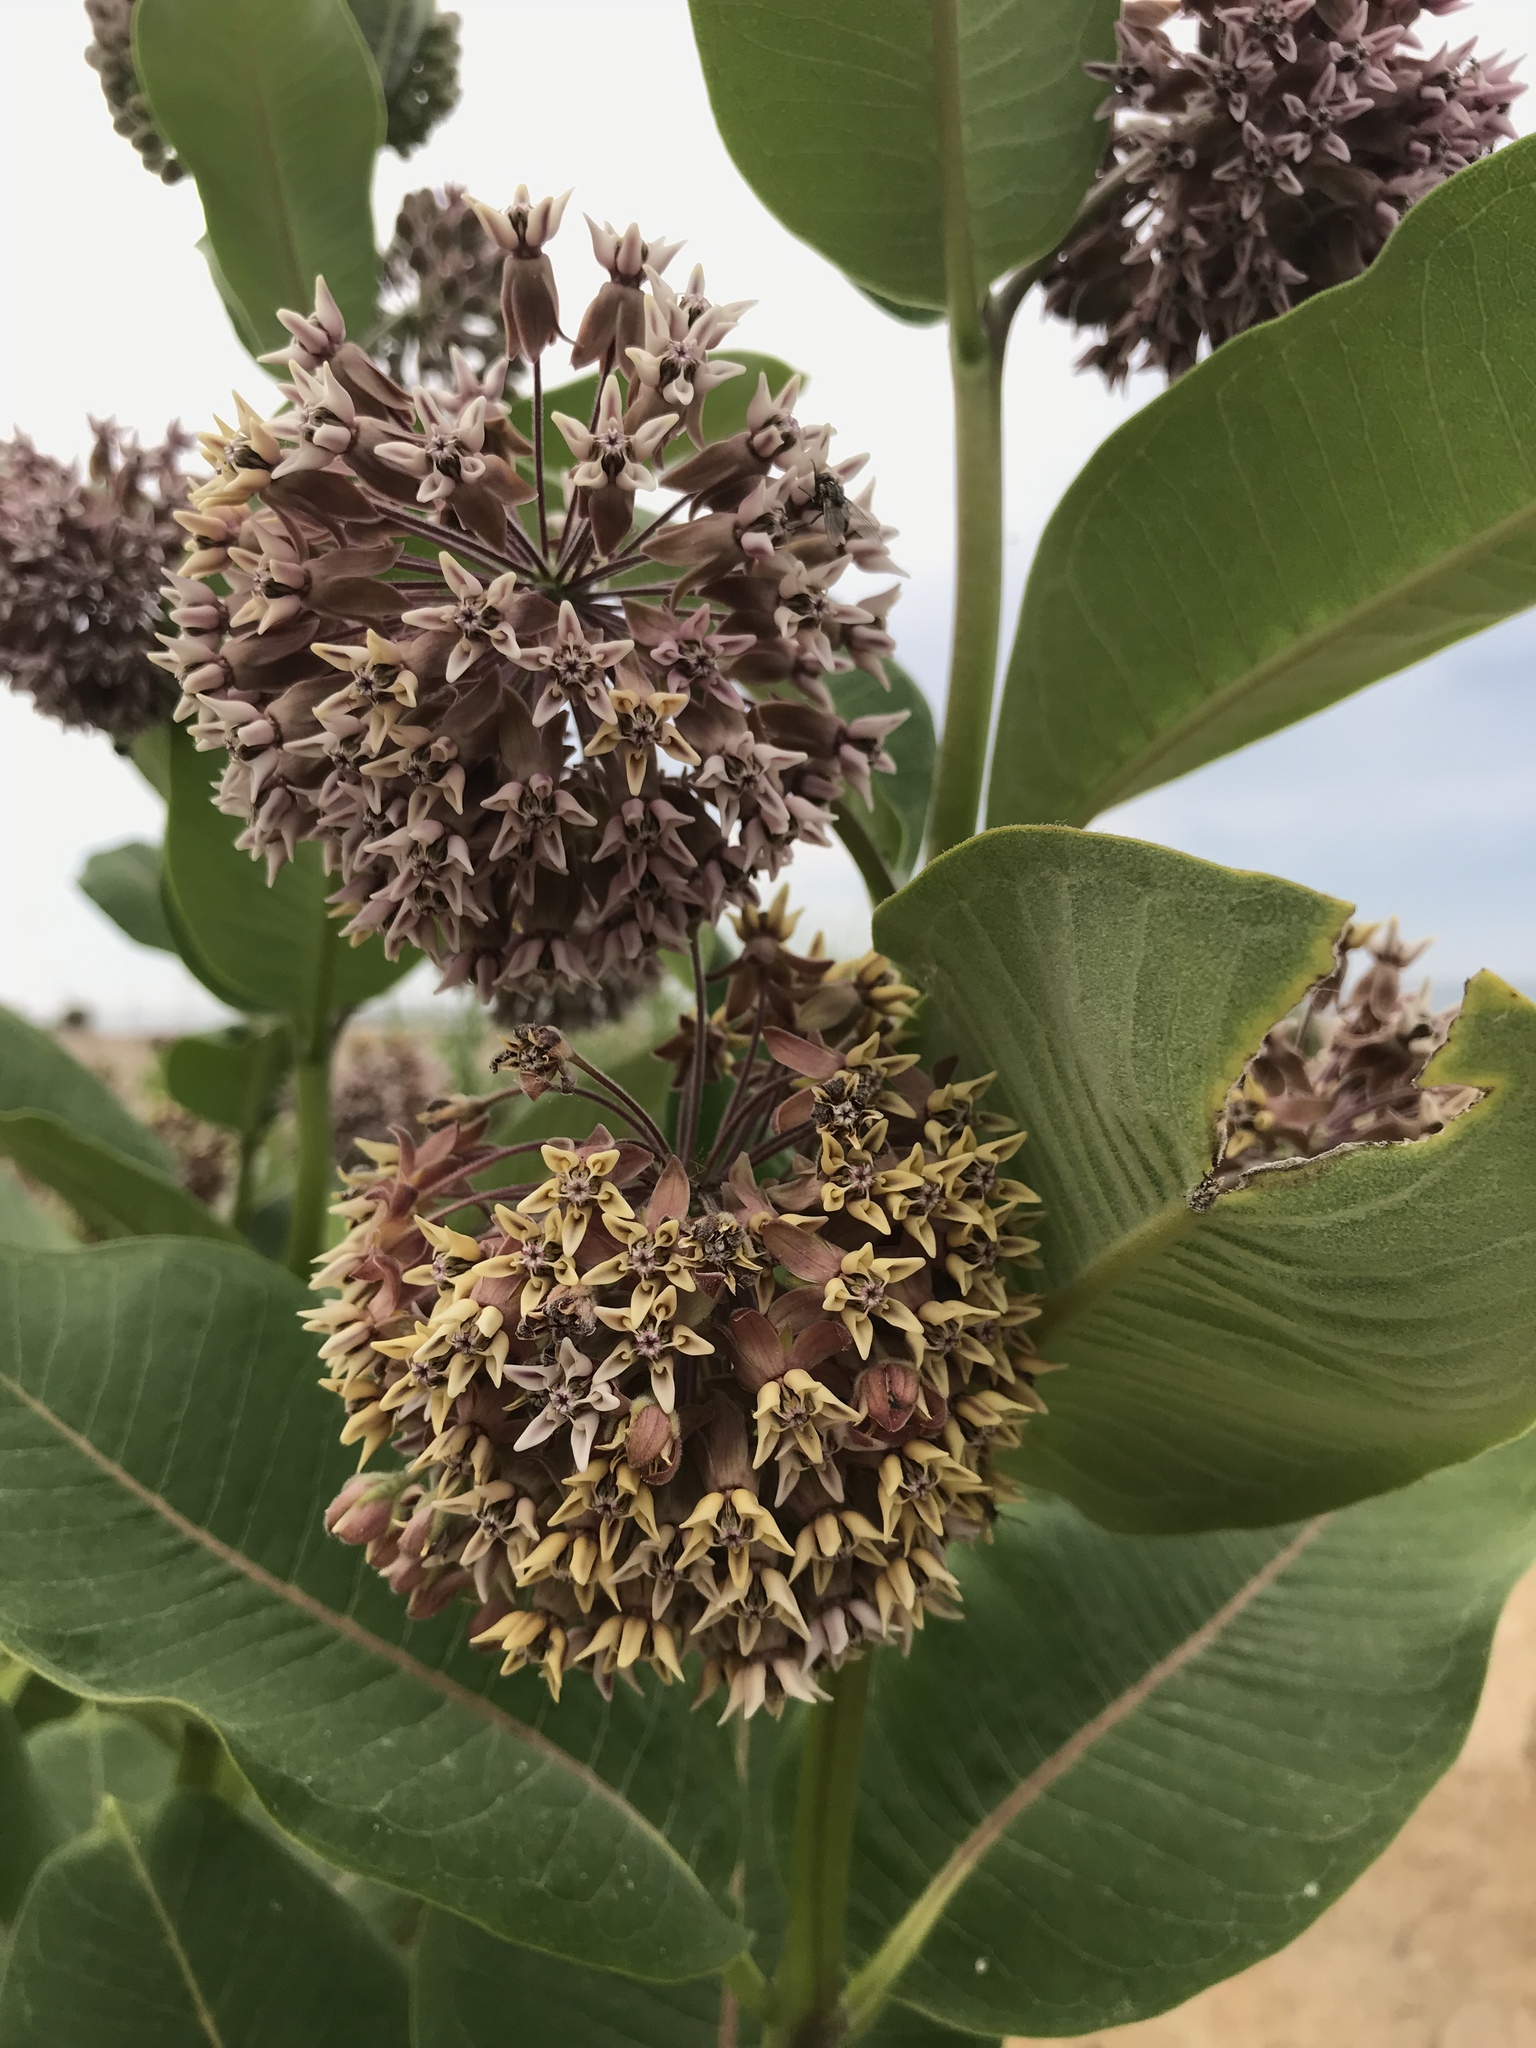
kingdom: Plantae
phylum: Tracheophyta
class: Magnoliopsida
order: Gentianales
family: Apocynaceae
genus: Asclepias
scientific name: Asclepias syriaca
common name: Common milkweed
